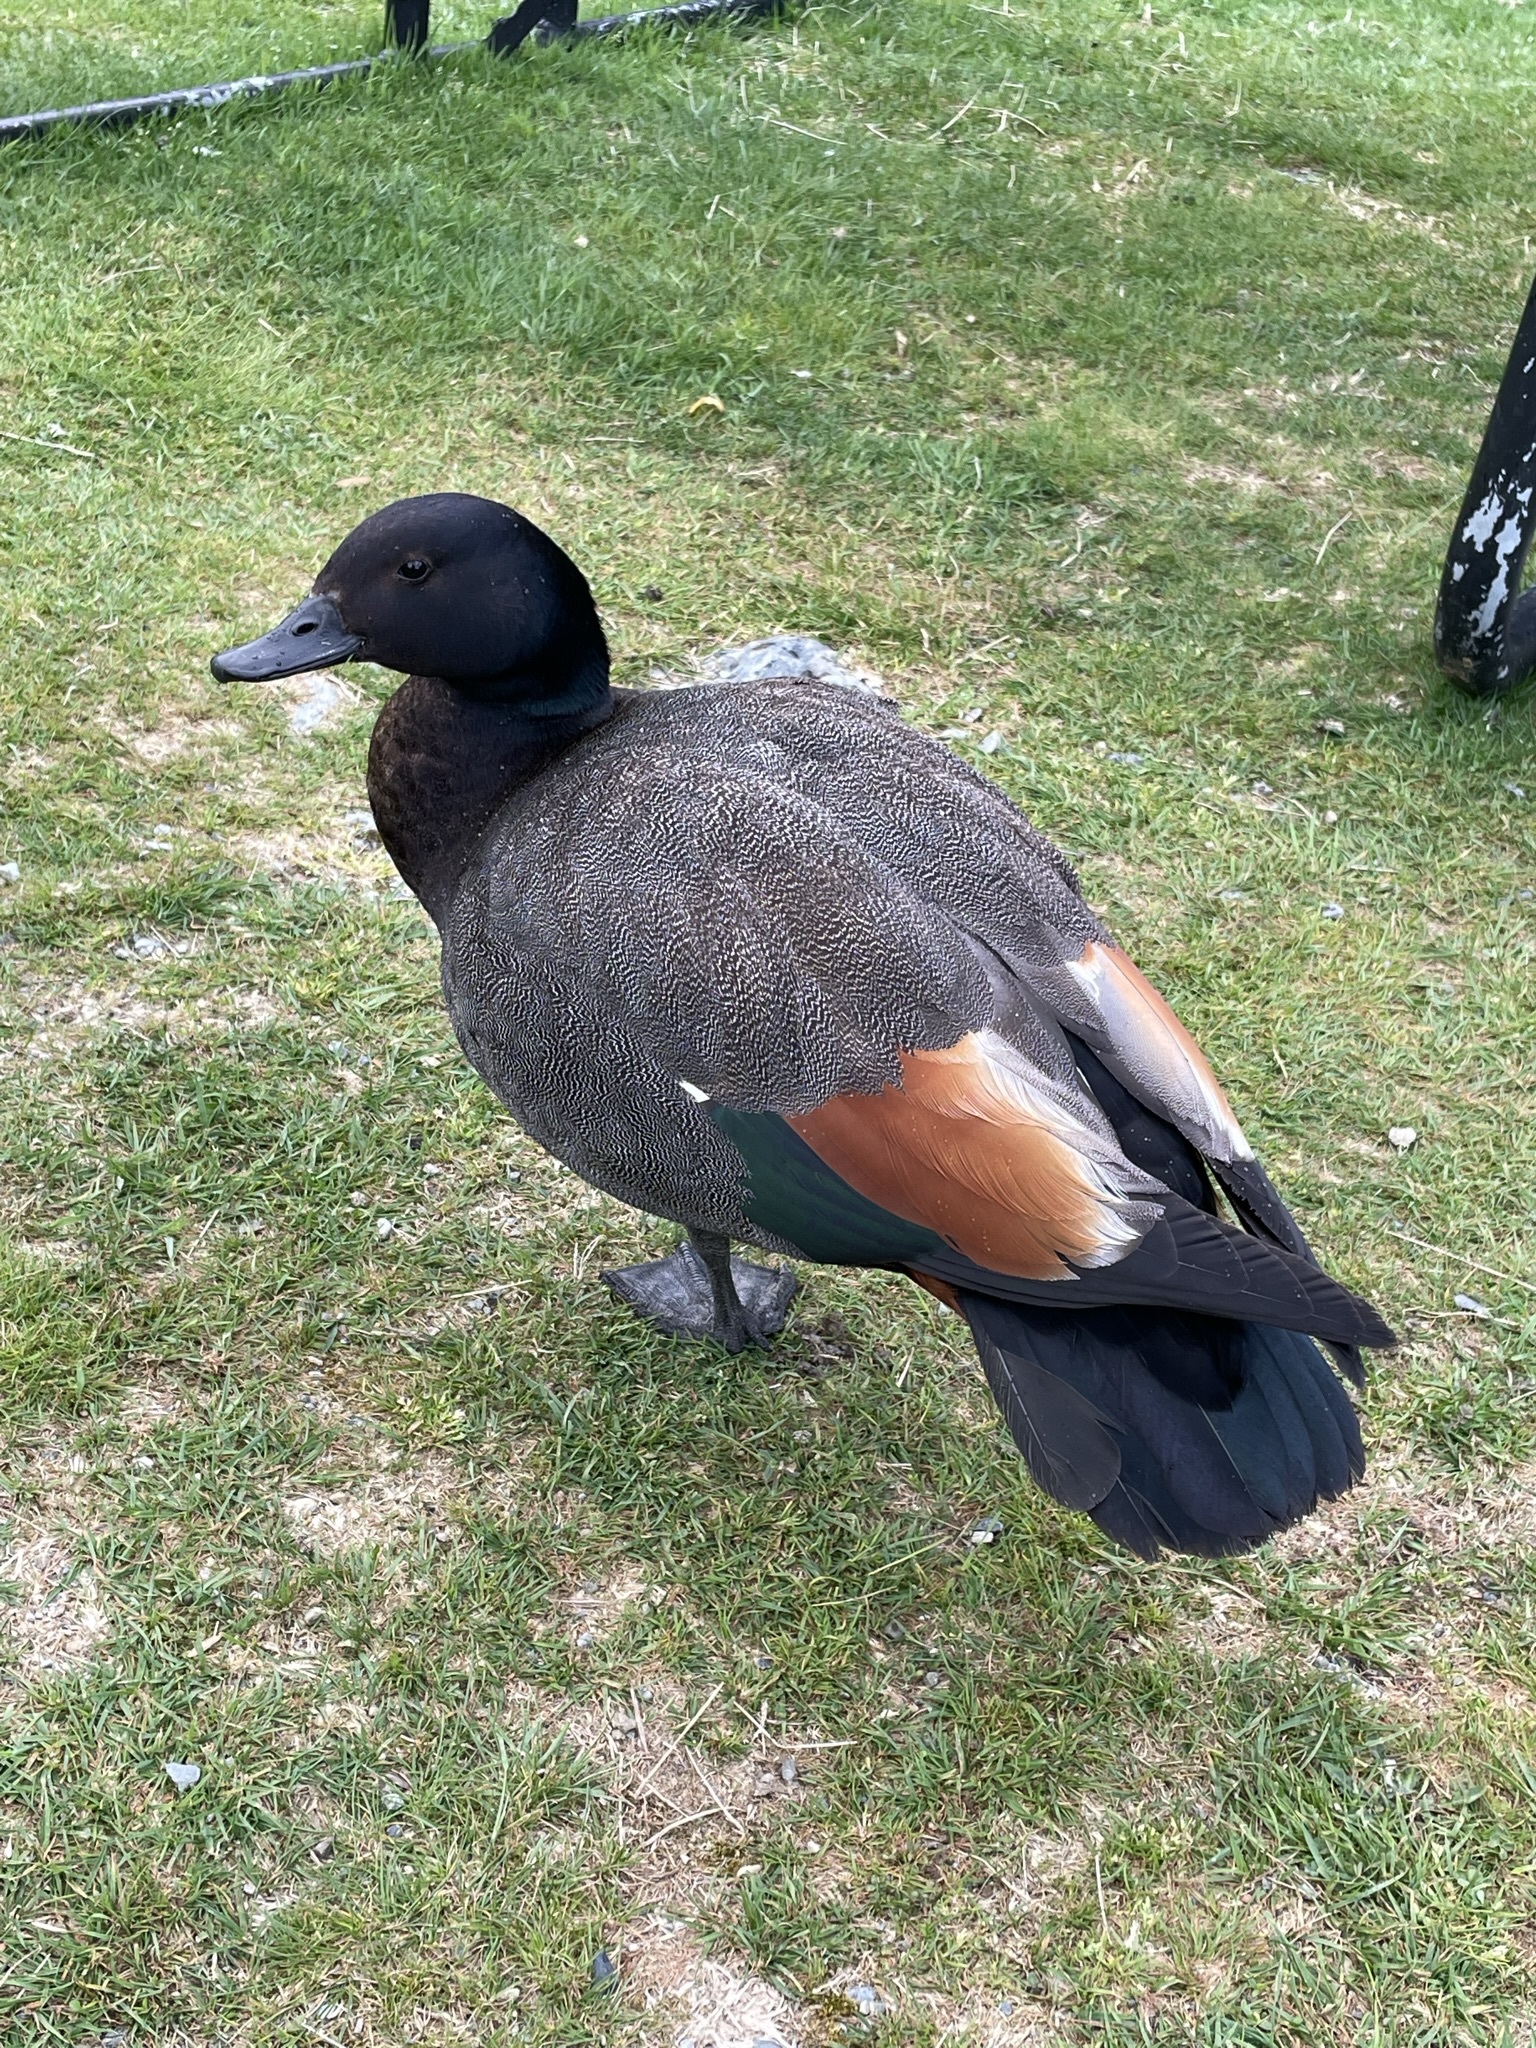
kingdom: Animalia
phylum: Chordata
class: Aves
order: Anseriformes
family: Anatidae
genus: Tadorna
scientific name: Tadorna variegata
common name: Paradise shelduck
